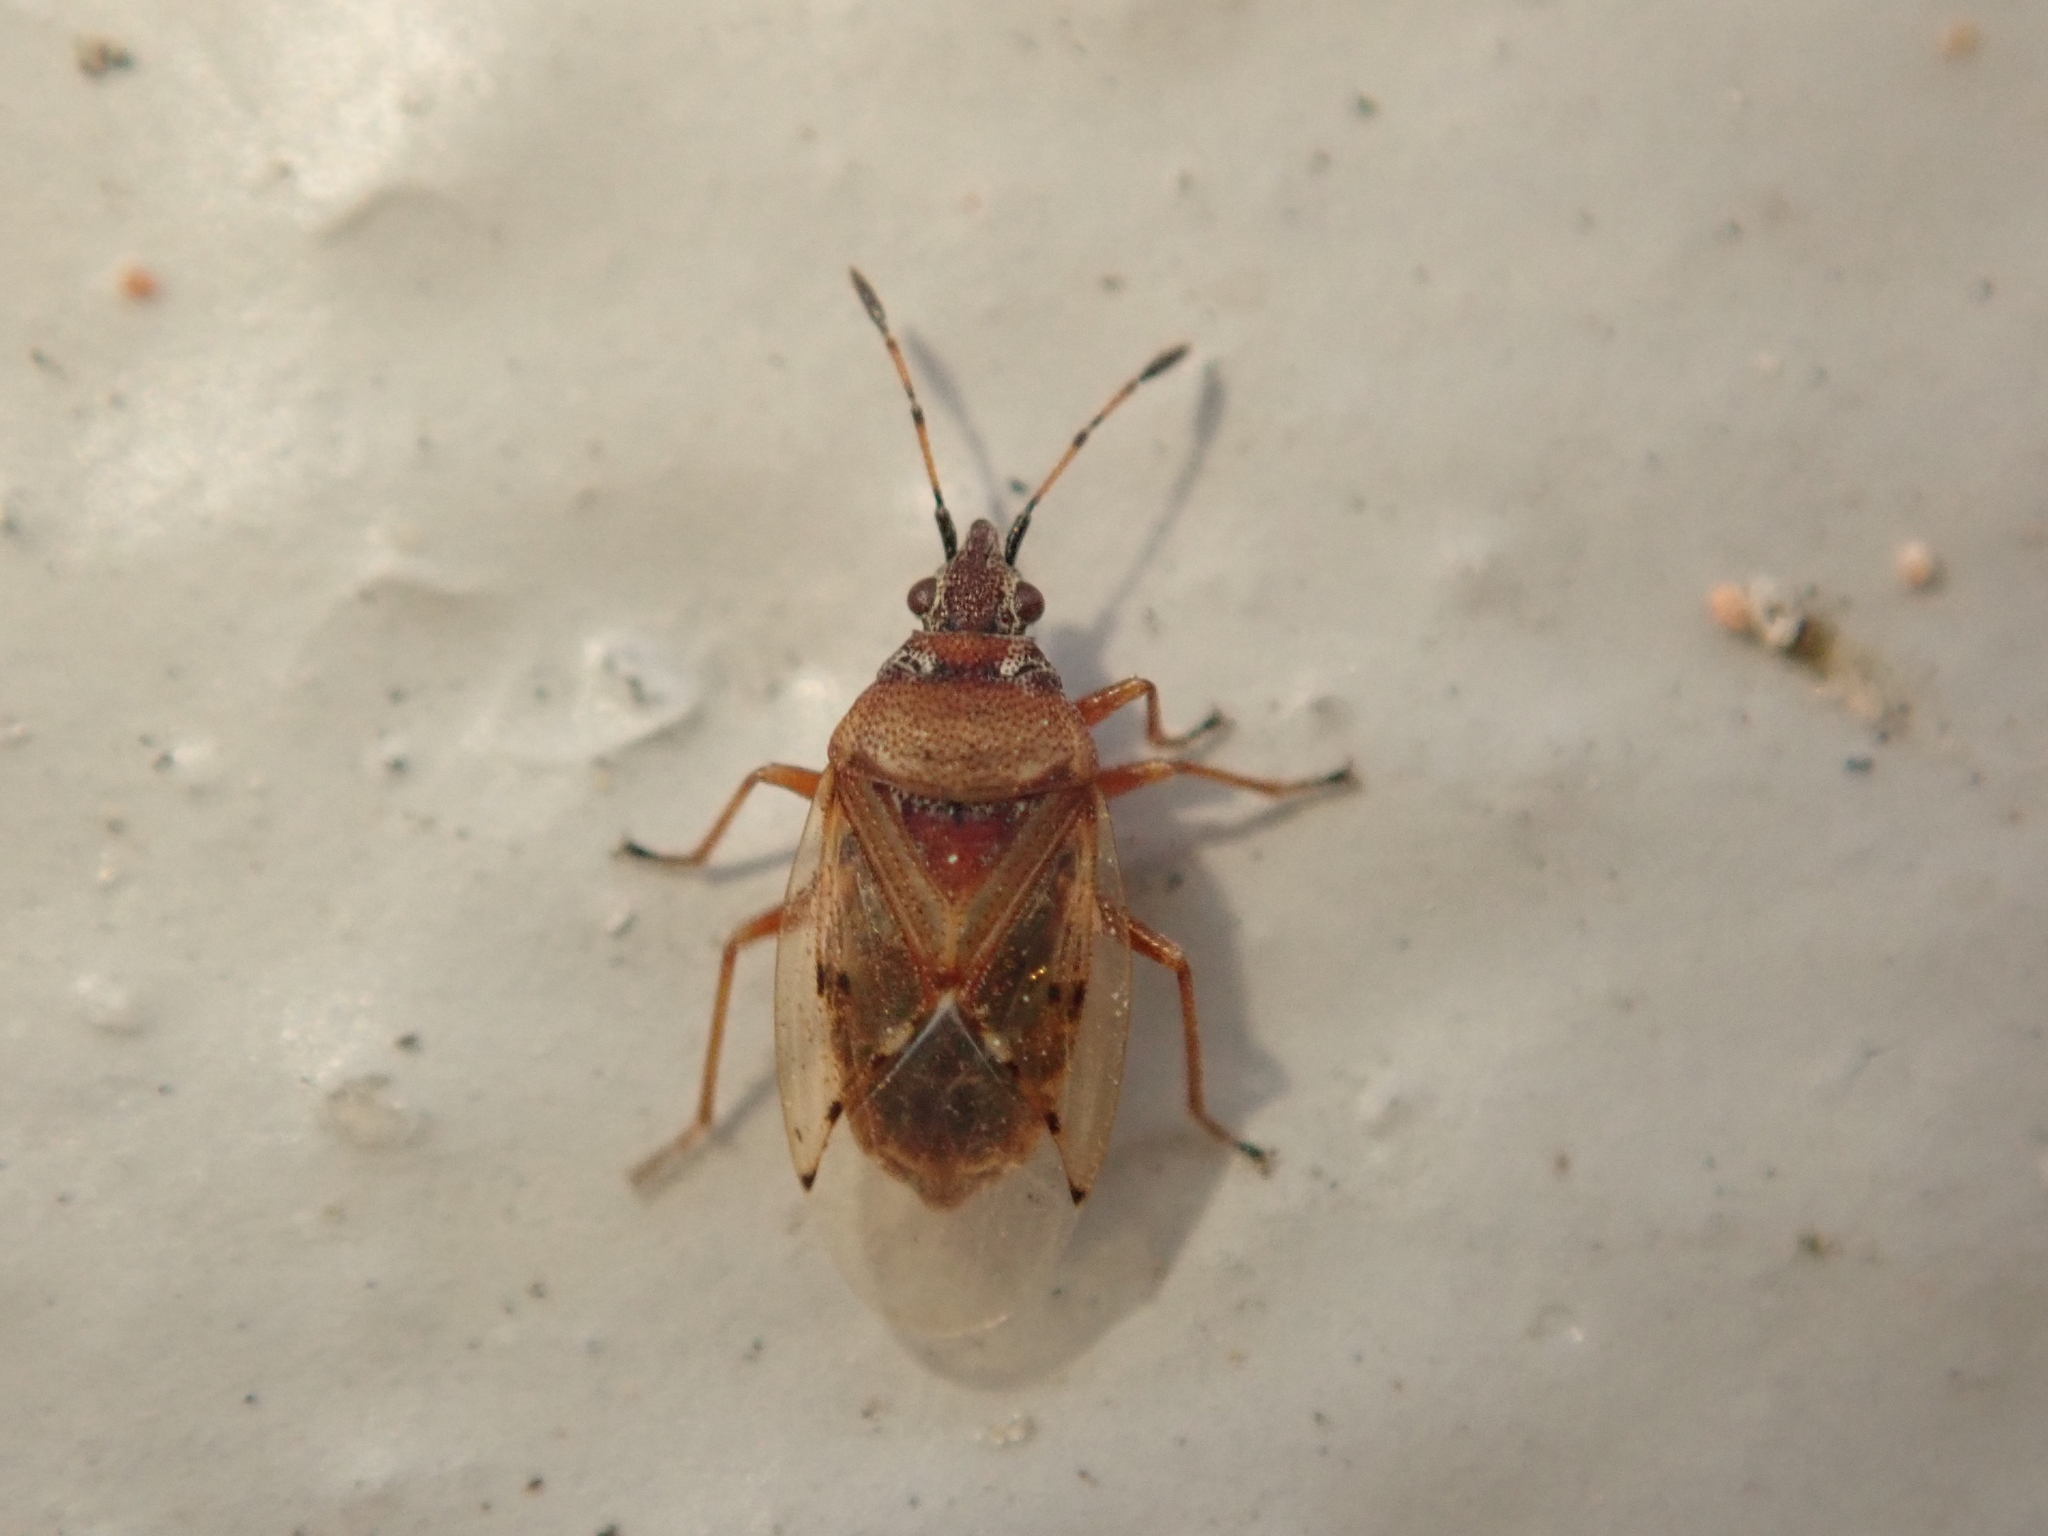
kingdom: Animalia
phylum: Arthropoda
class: Insecta
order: Hemiptera
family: Lygaeidae
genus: Kleidocerys
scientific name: Kleidocerys resedae
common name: Birch catkin bug
